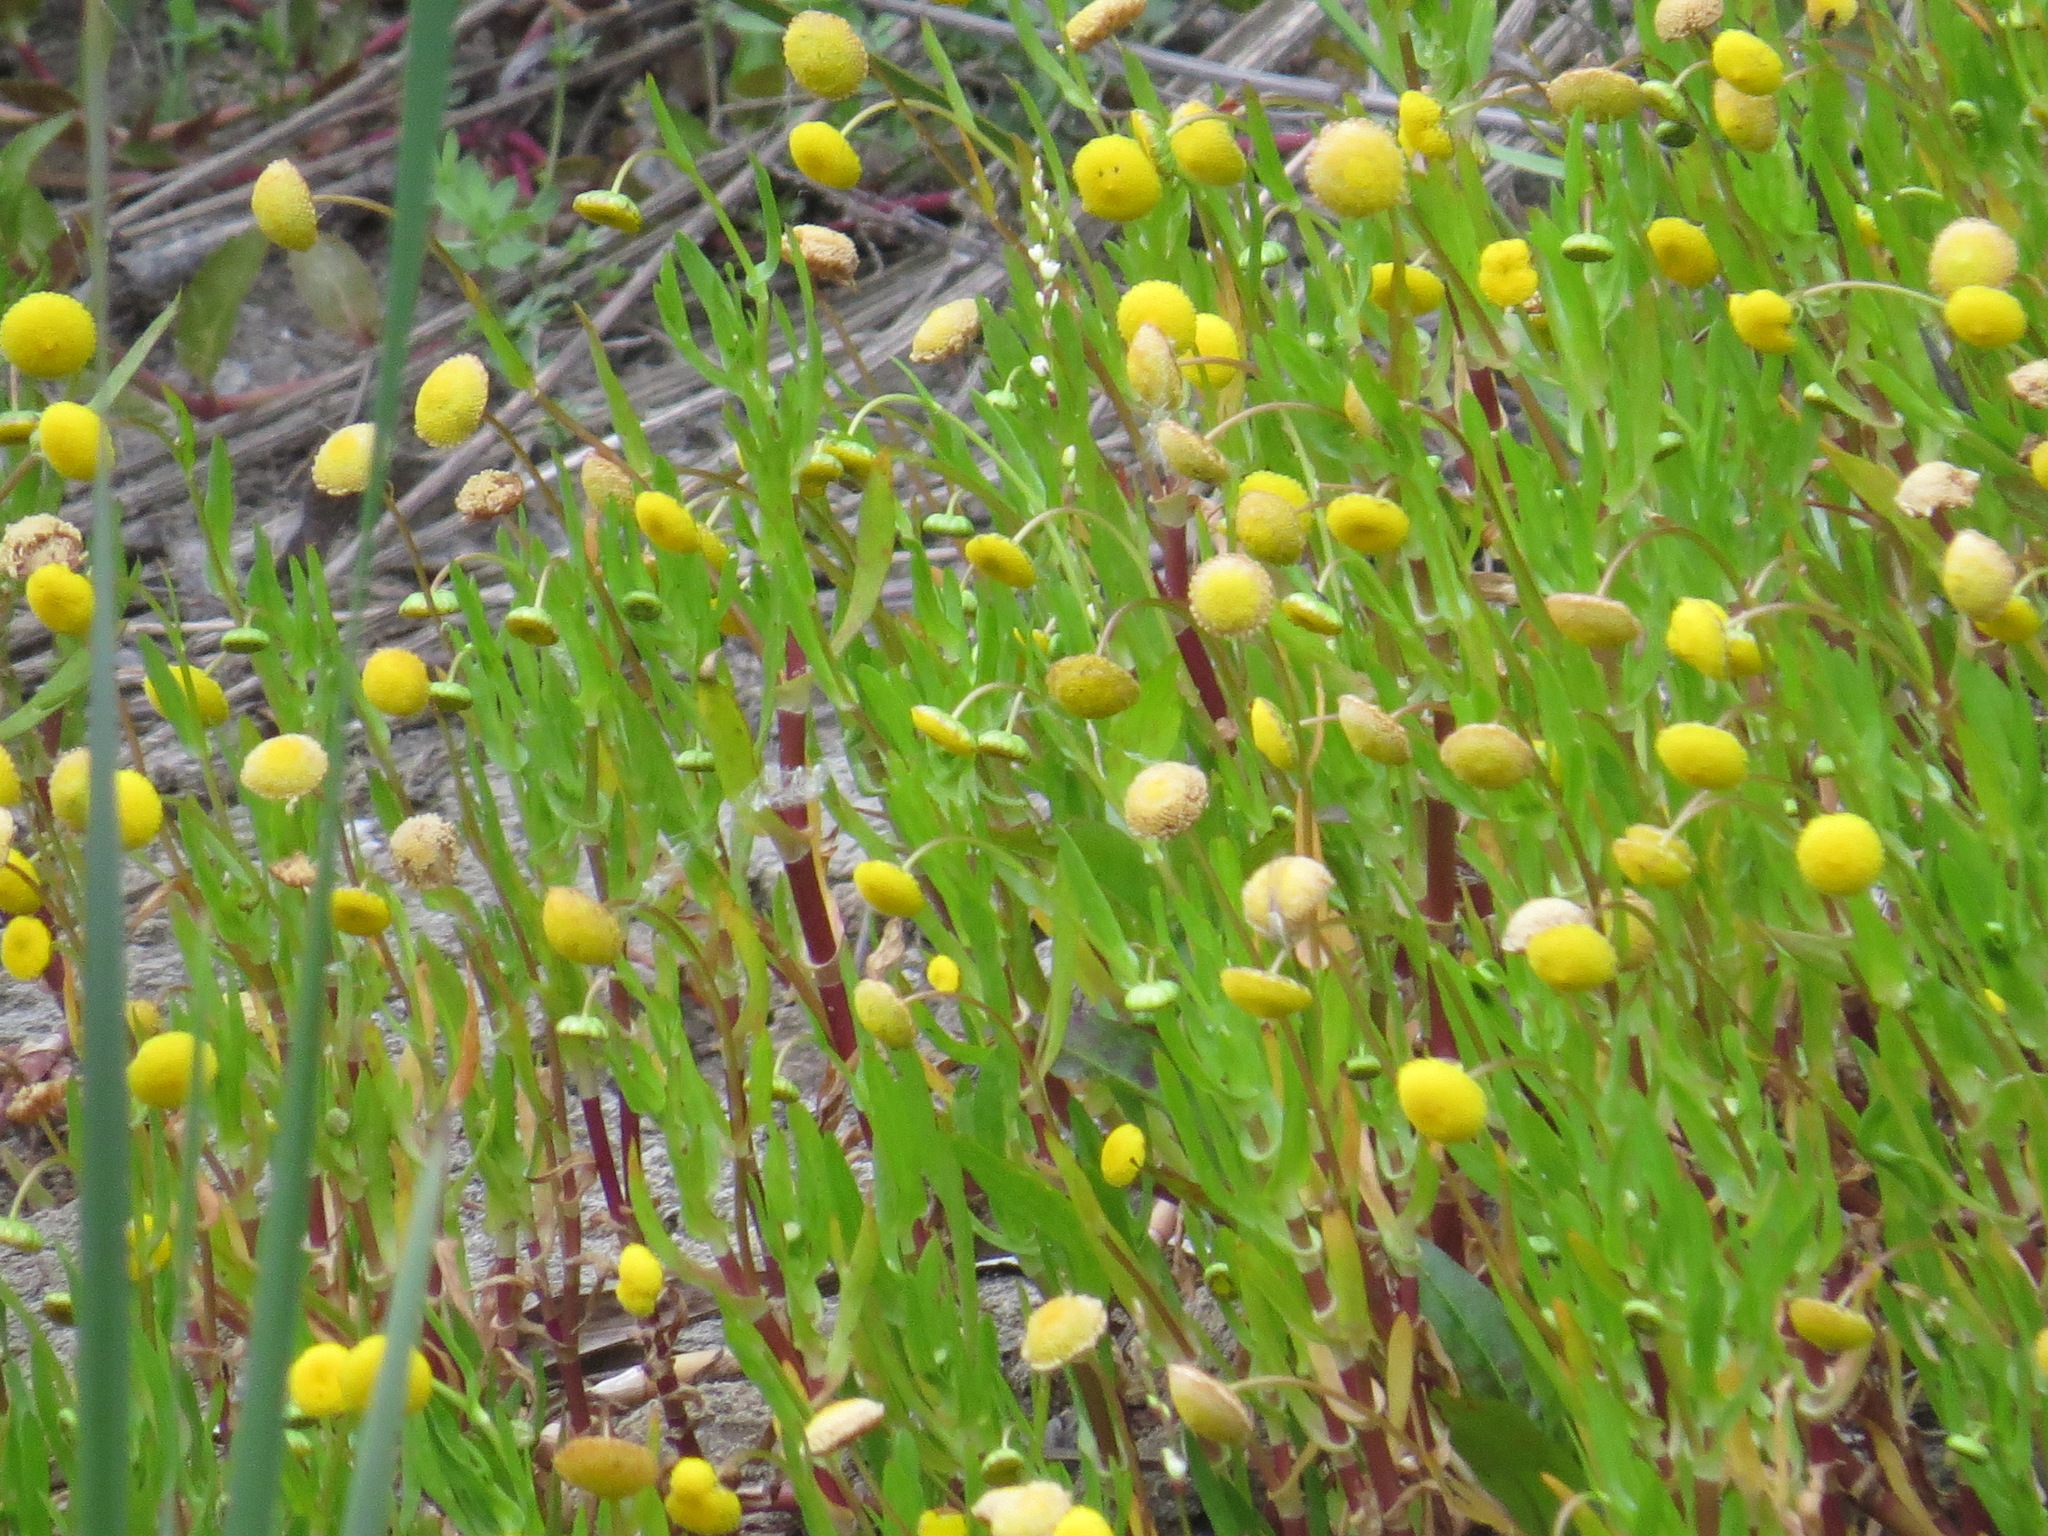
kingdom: Plantae
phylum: Tracheophyta
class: Magnoliopsida
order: Asterales
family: Asteraceae
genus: Cotula
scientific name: Cotula coronopifolia
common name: Buttonweed
